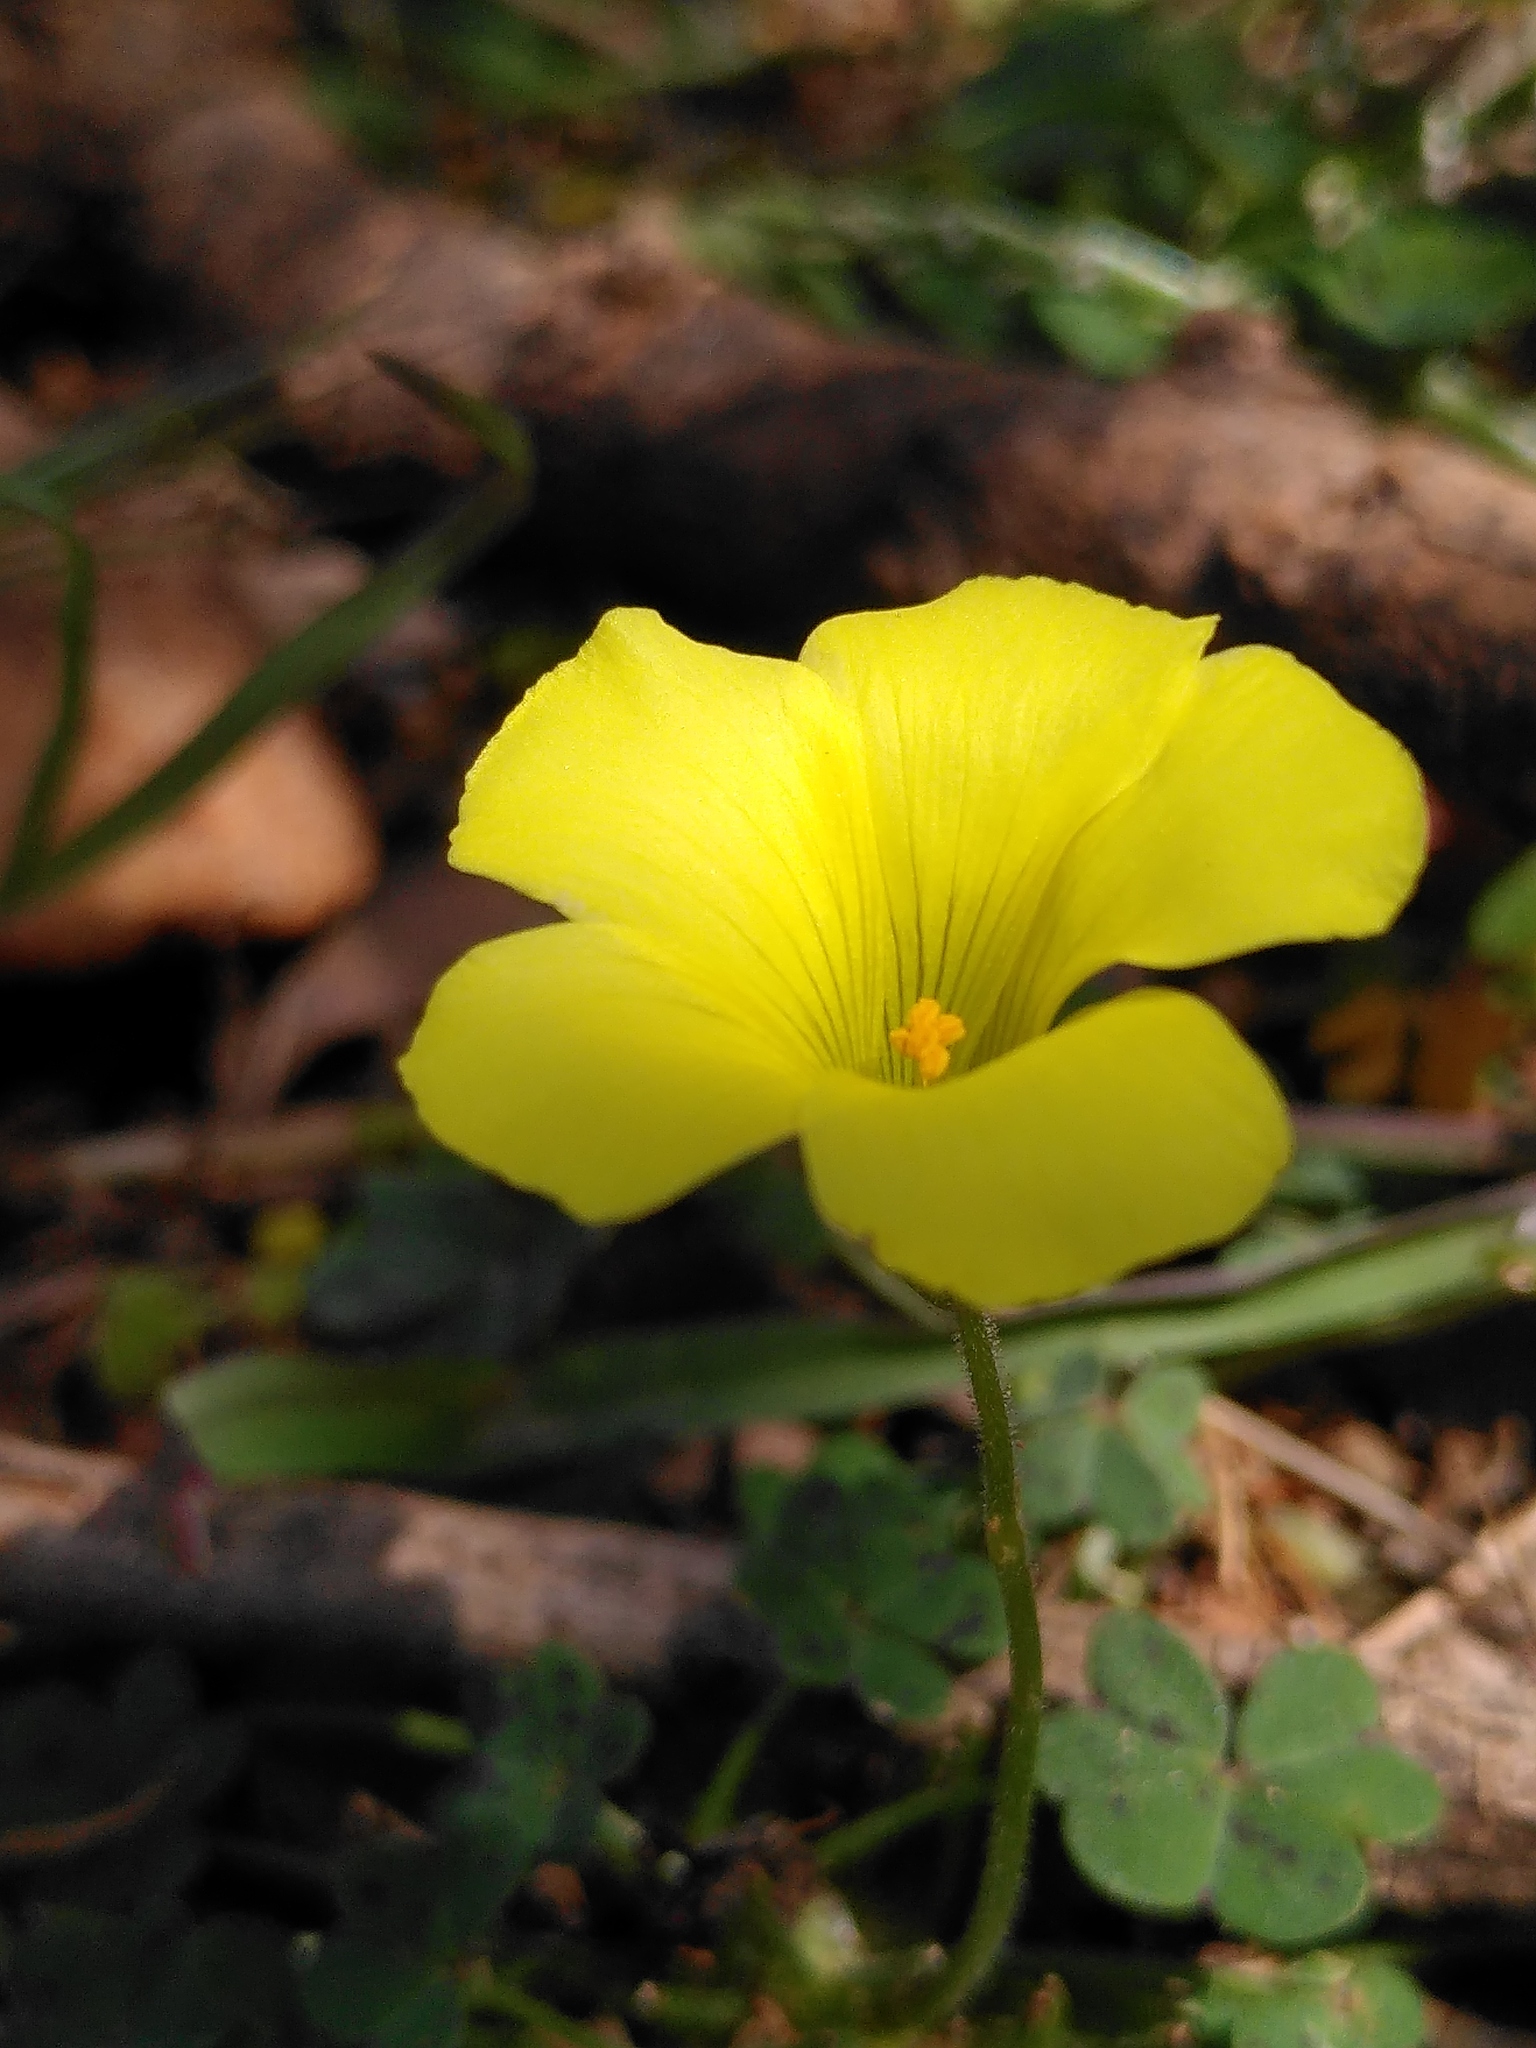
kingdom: Plantae
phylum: Tracheophyta
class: Magnoliopsida
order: Oxalidales
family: Oxalidaceae
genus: Oxalis
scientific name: Oxalis pes-caprae
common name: Bermuda-buttercup
